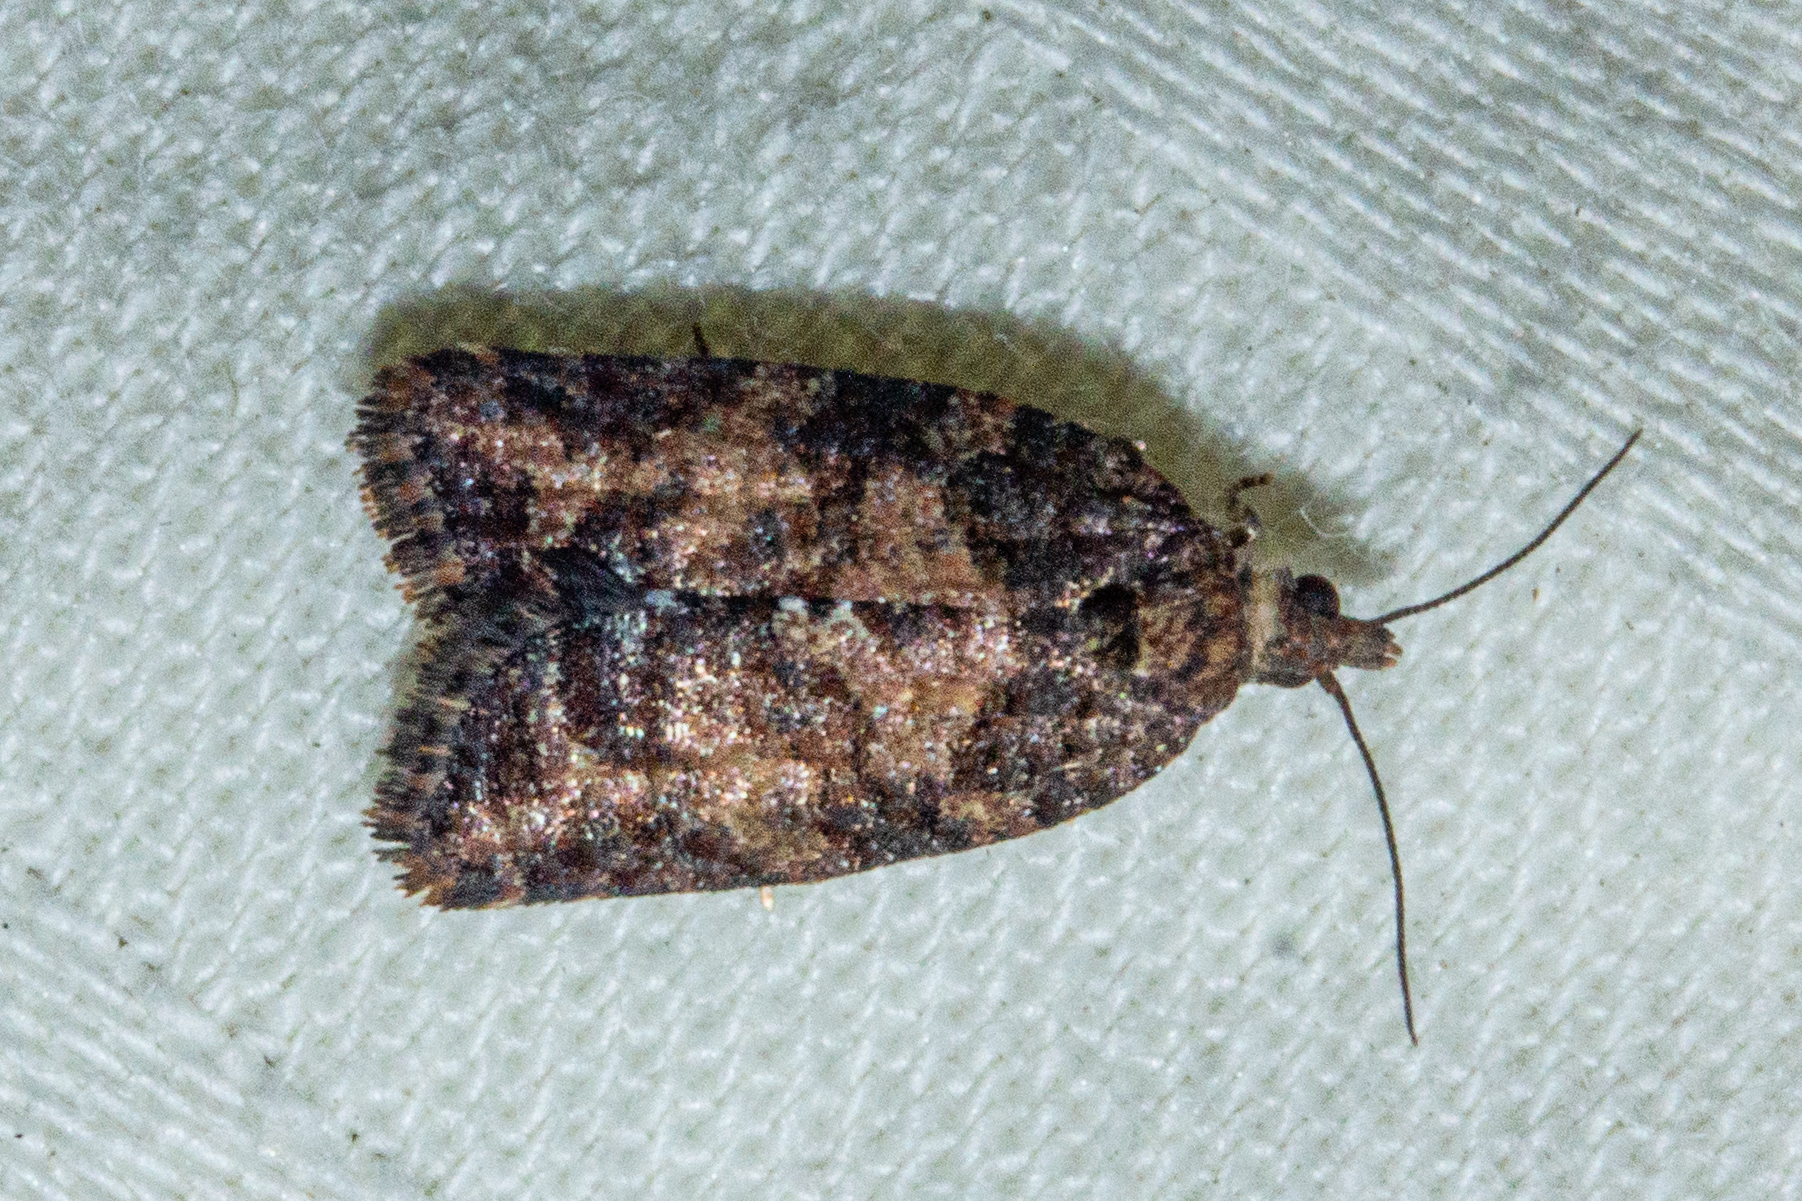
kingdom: Animalia
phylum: Arthropoda
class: Insecta
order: Lepidoptera
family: Tortricidae
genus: Capua
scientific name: Capua intractana
